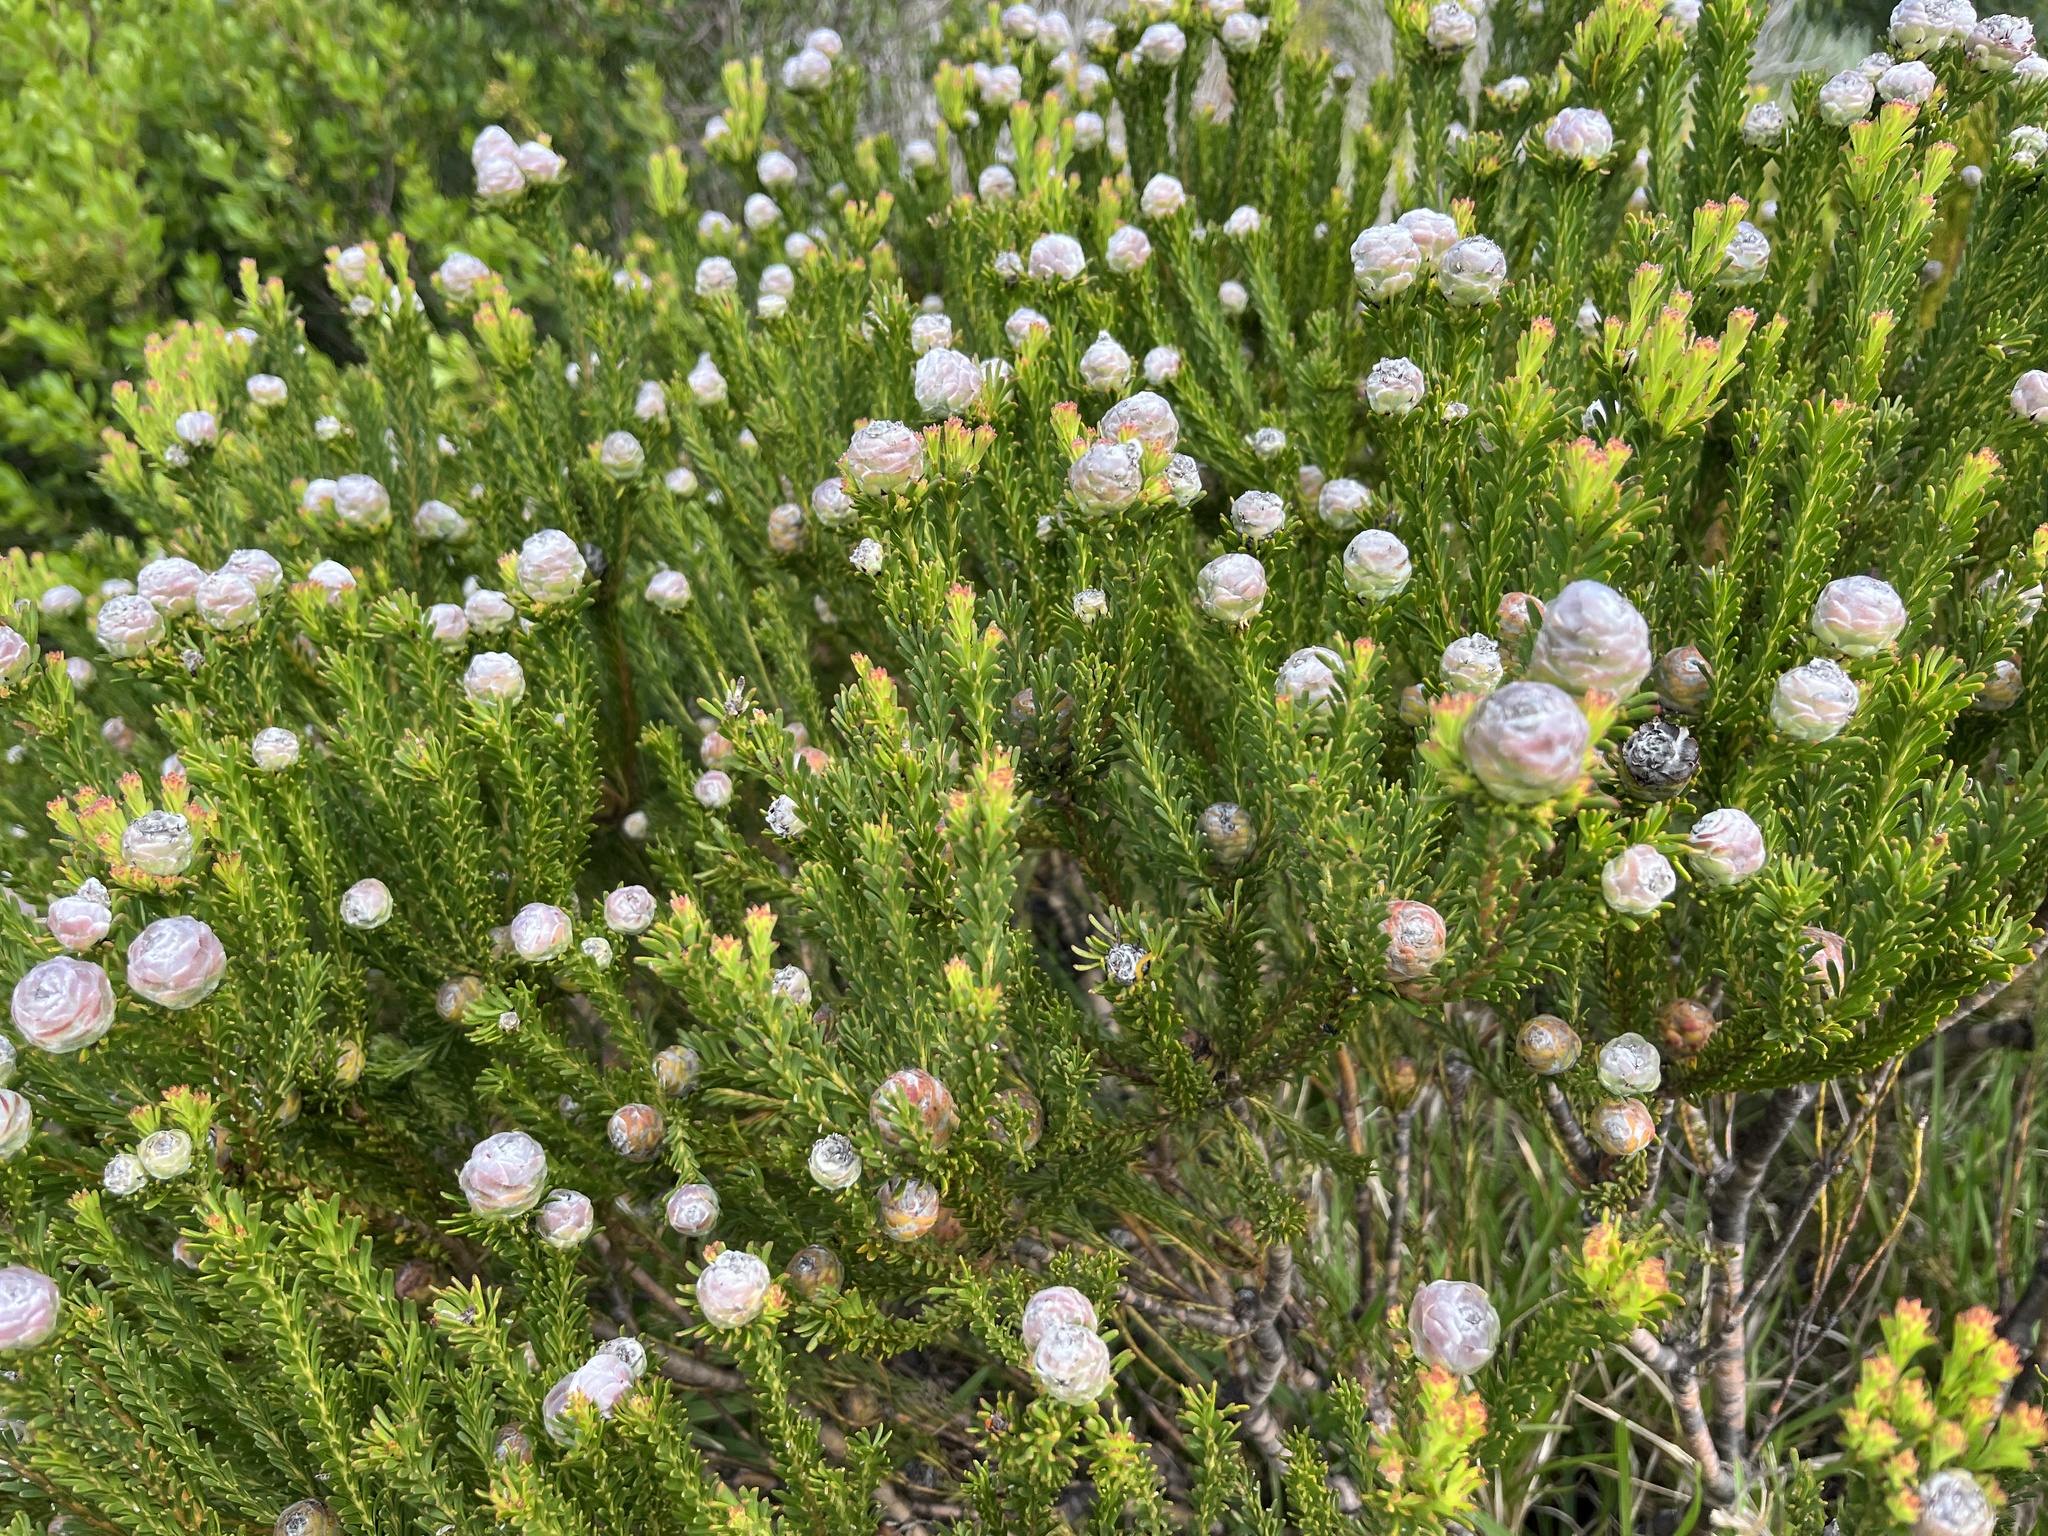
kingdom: Plantae
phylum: Tracheophyta
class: Magnoliopsida
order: Proteales
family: Proteaceae
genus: Leucadendron
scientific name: Leucadendron linifolium
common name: Line-leaf conebush
